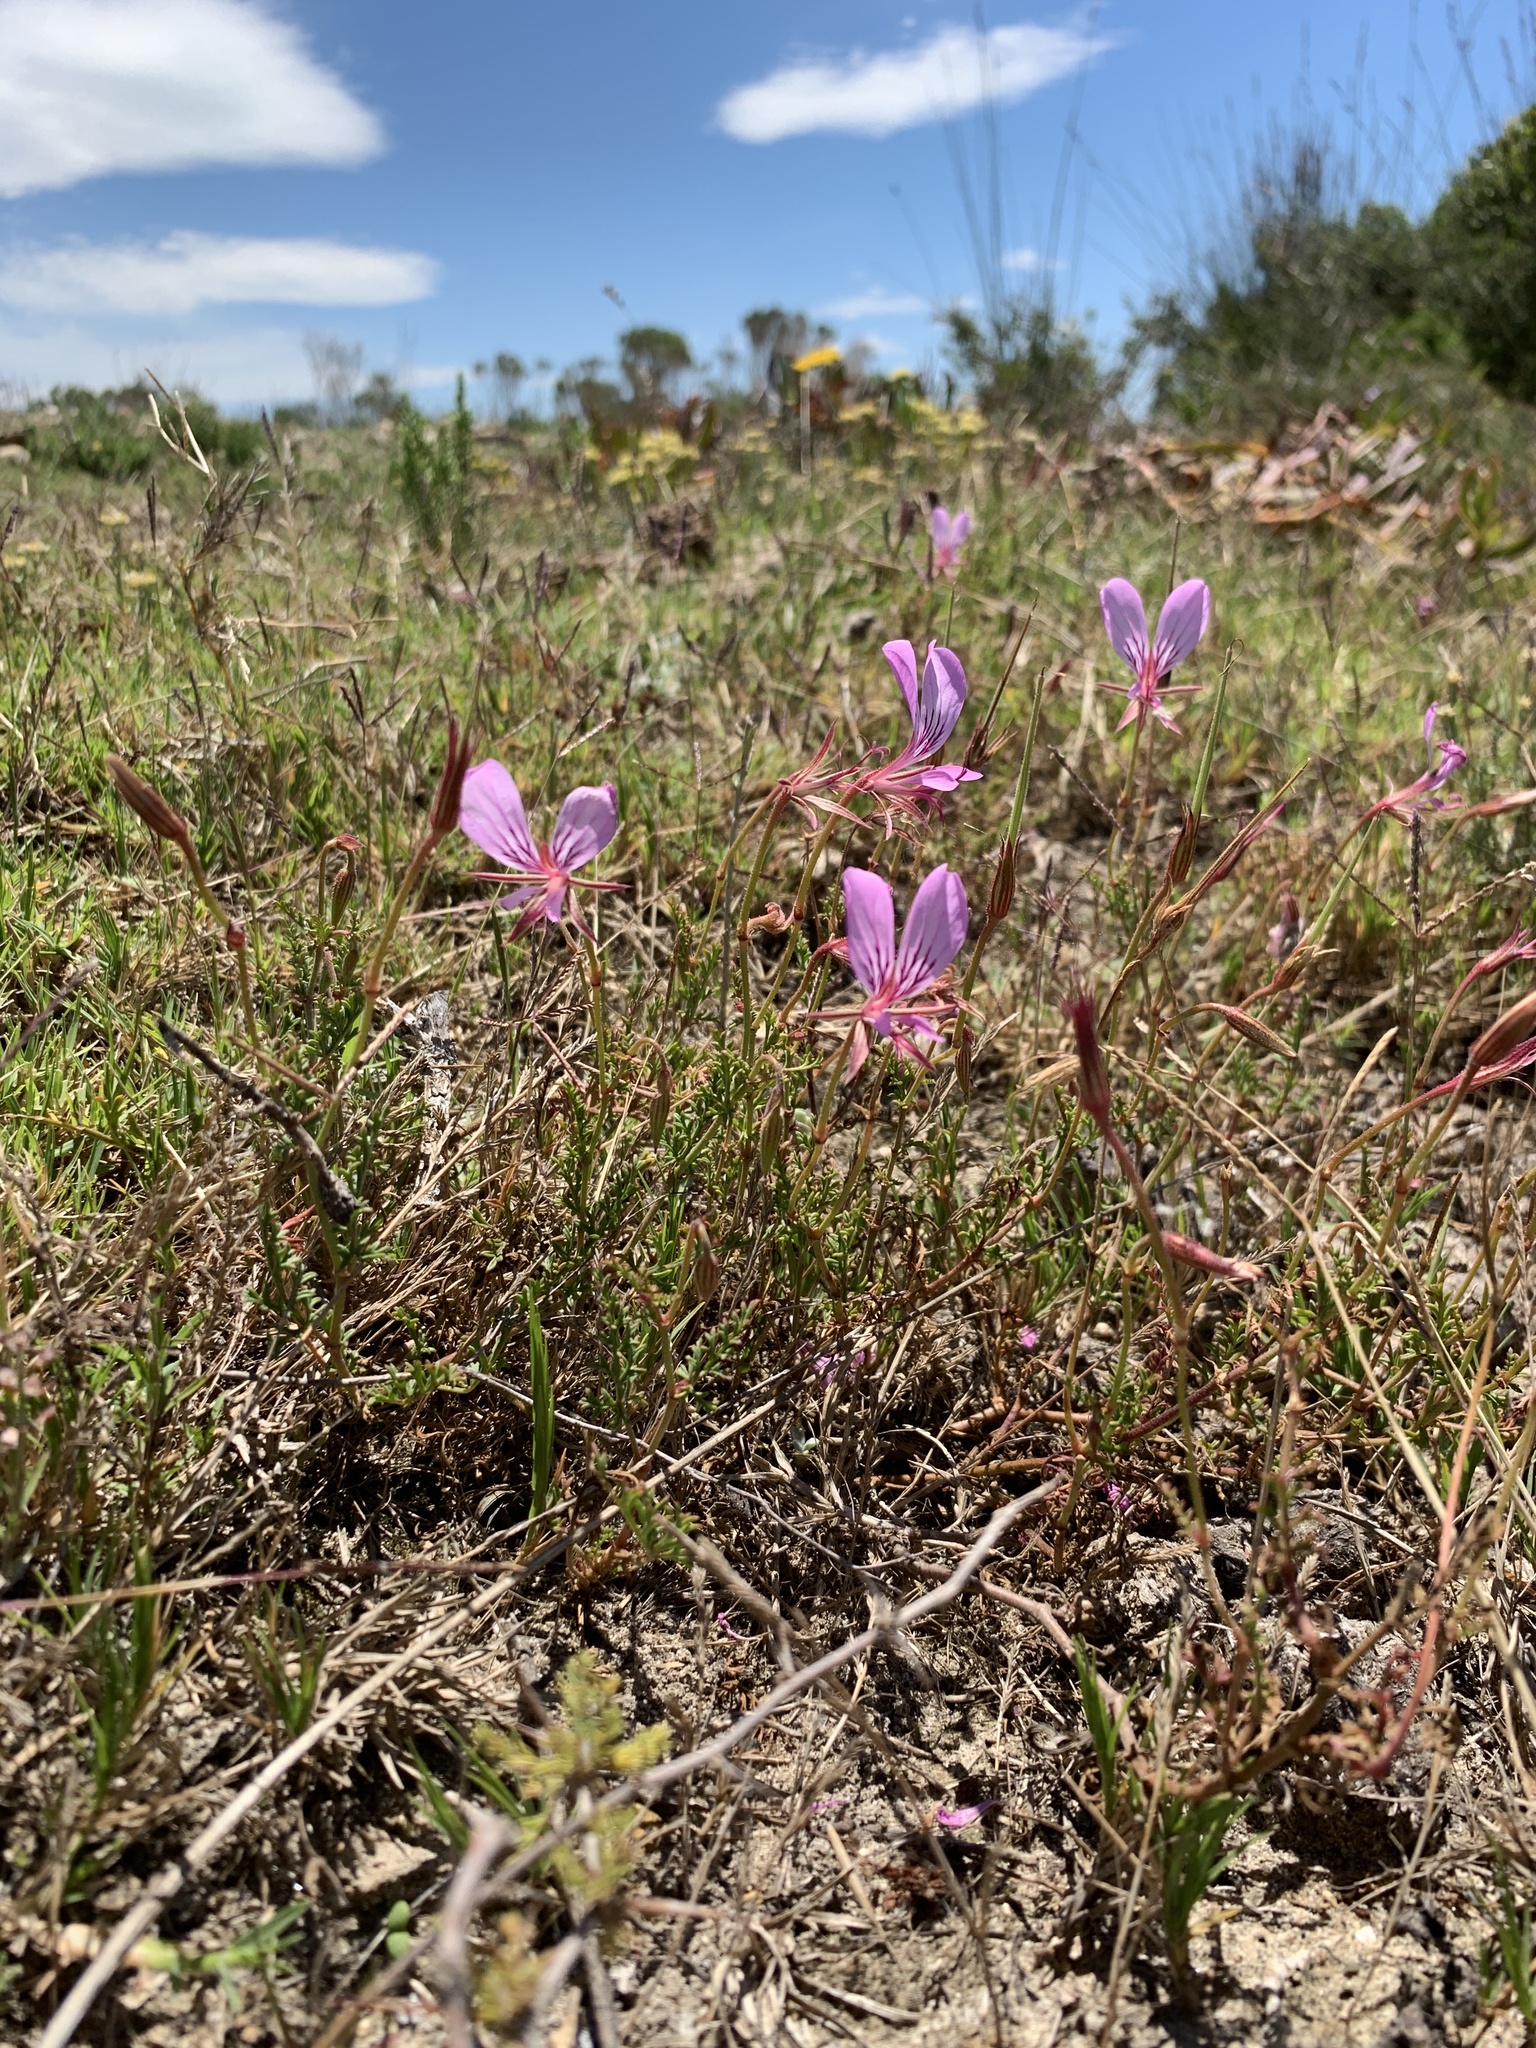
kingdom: Plantae
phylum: Tracheophyta
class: Magnoliopsida
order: Geraniales
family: Geraniaceae
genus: Pelargonium
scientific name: Pelargonium caucalifolium
